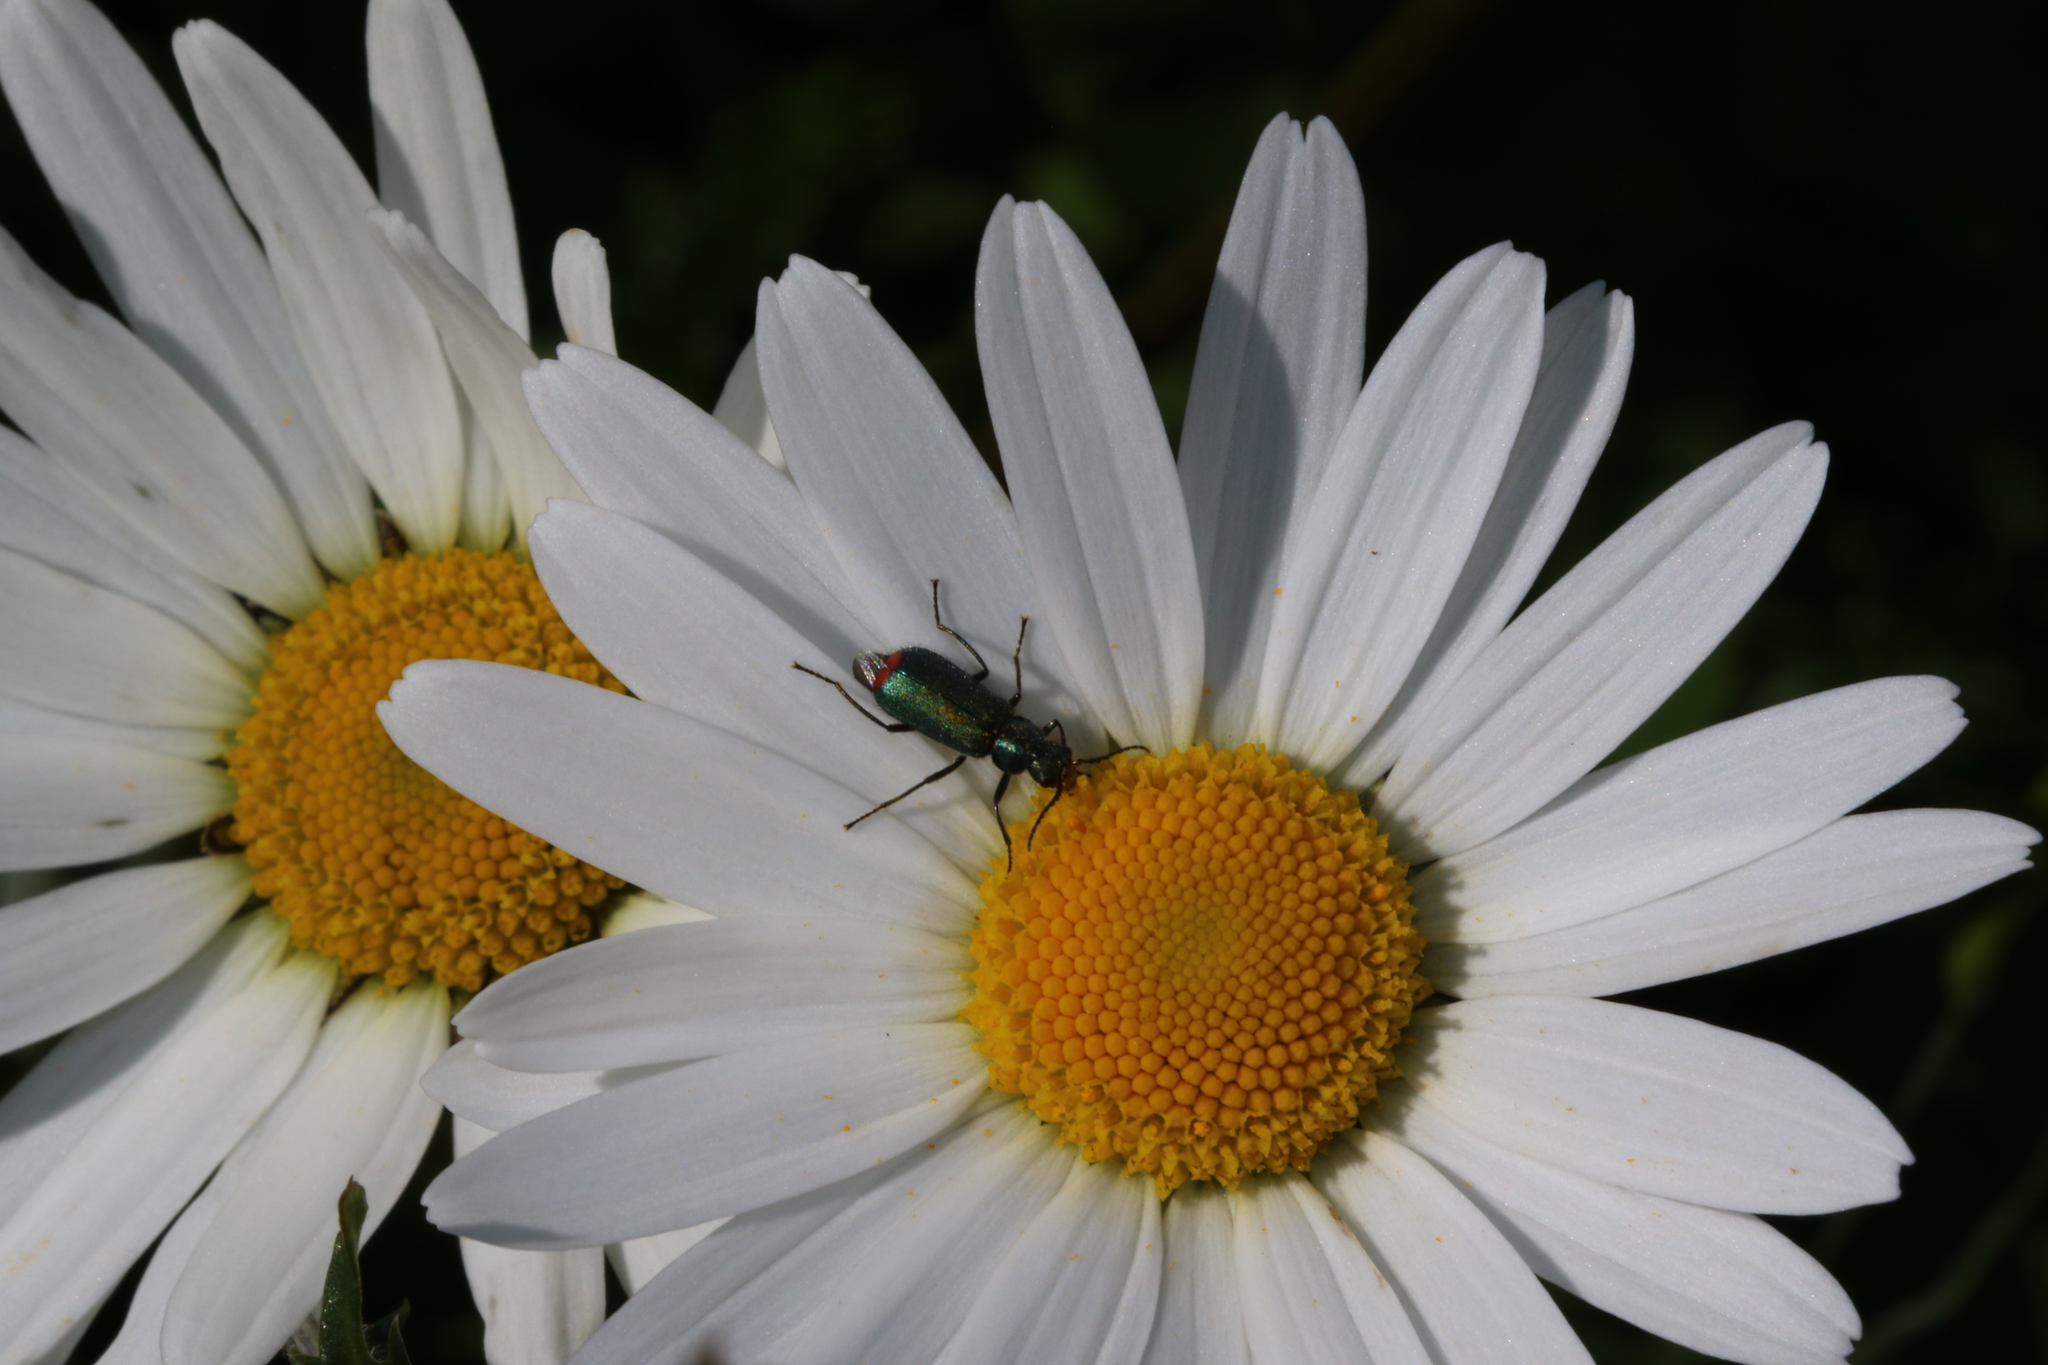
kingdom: Animalia
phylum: Arthropoda
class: Insecta
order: Coleoptera
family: Melyridae
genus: Malachius
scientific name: Malachius bipustulatus
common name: Malachite beetle
